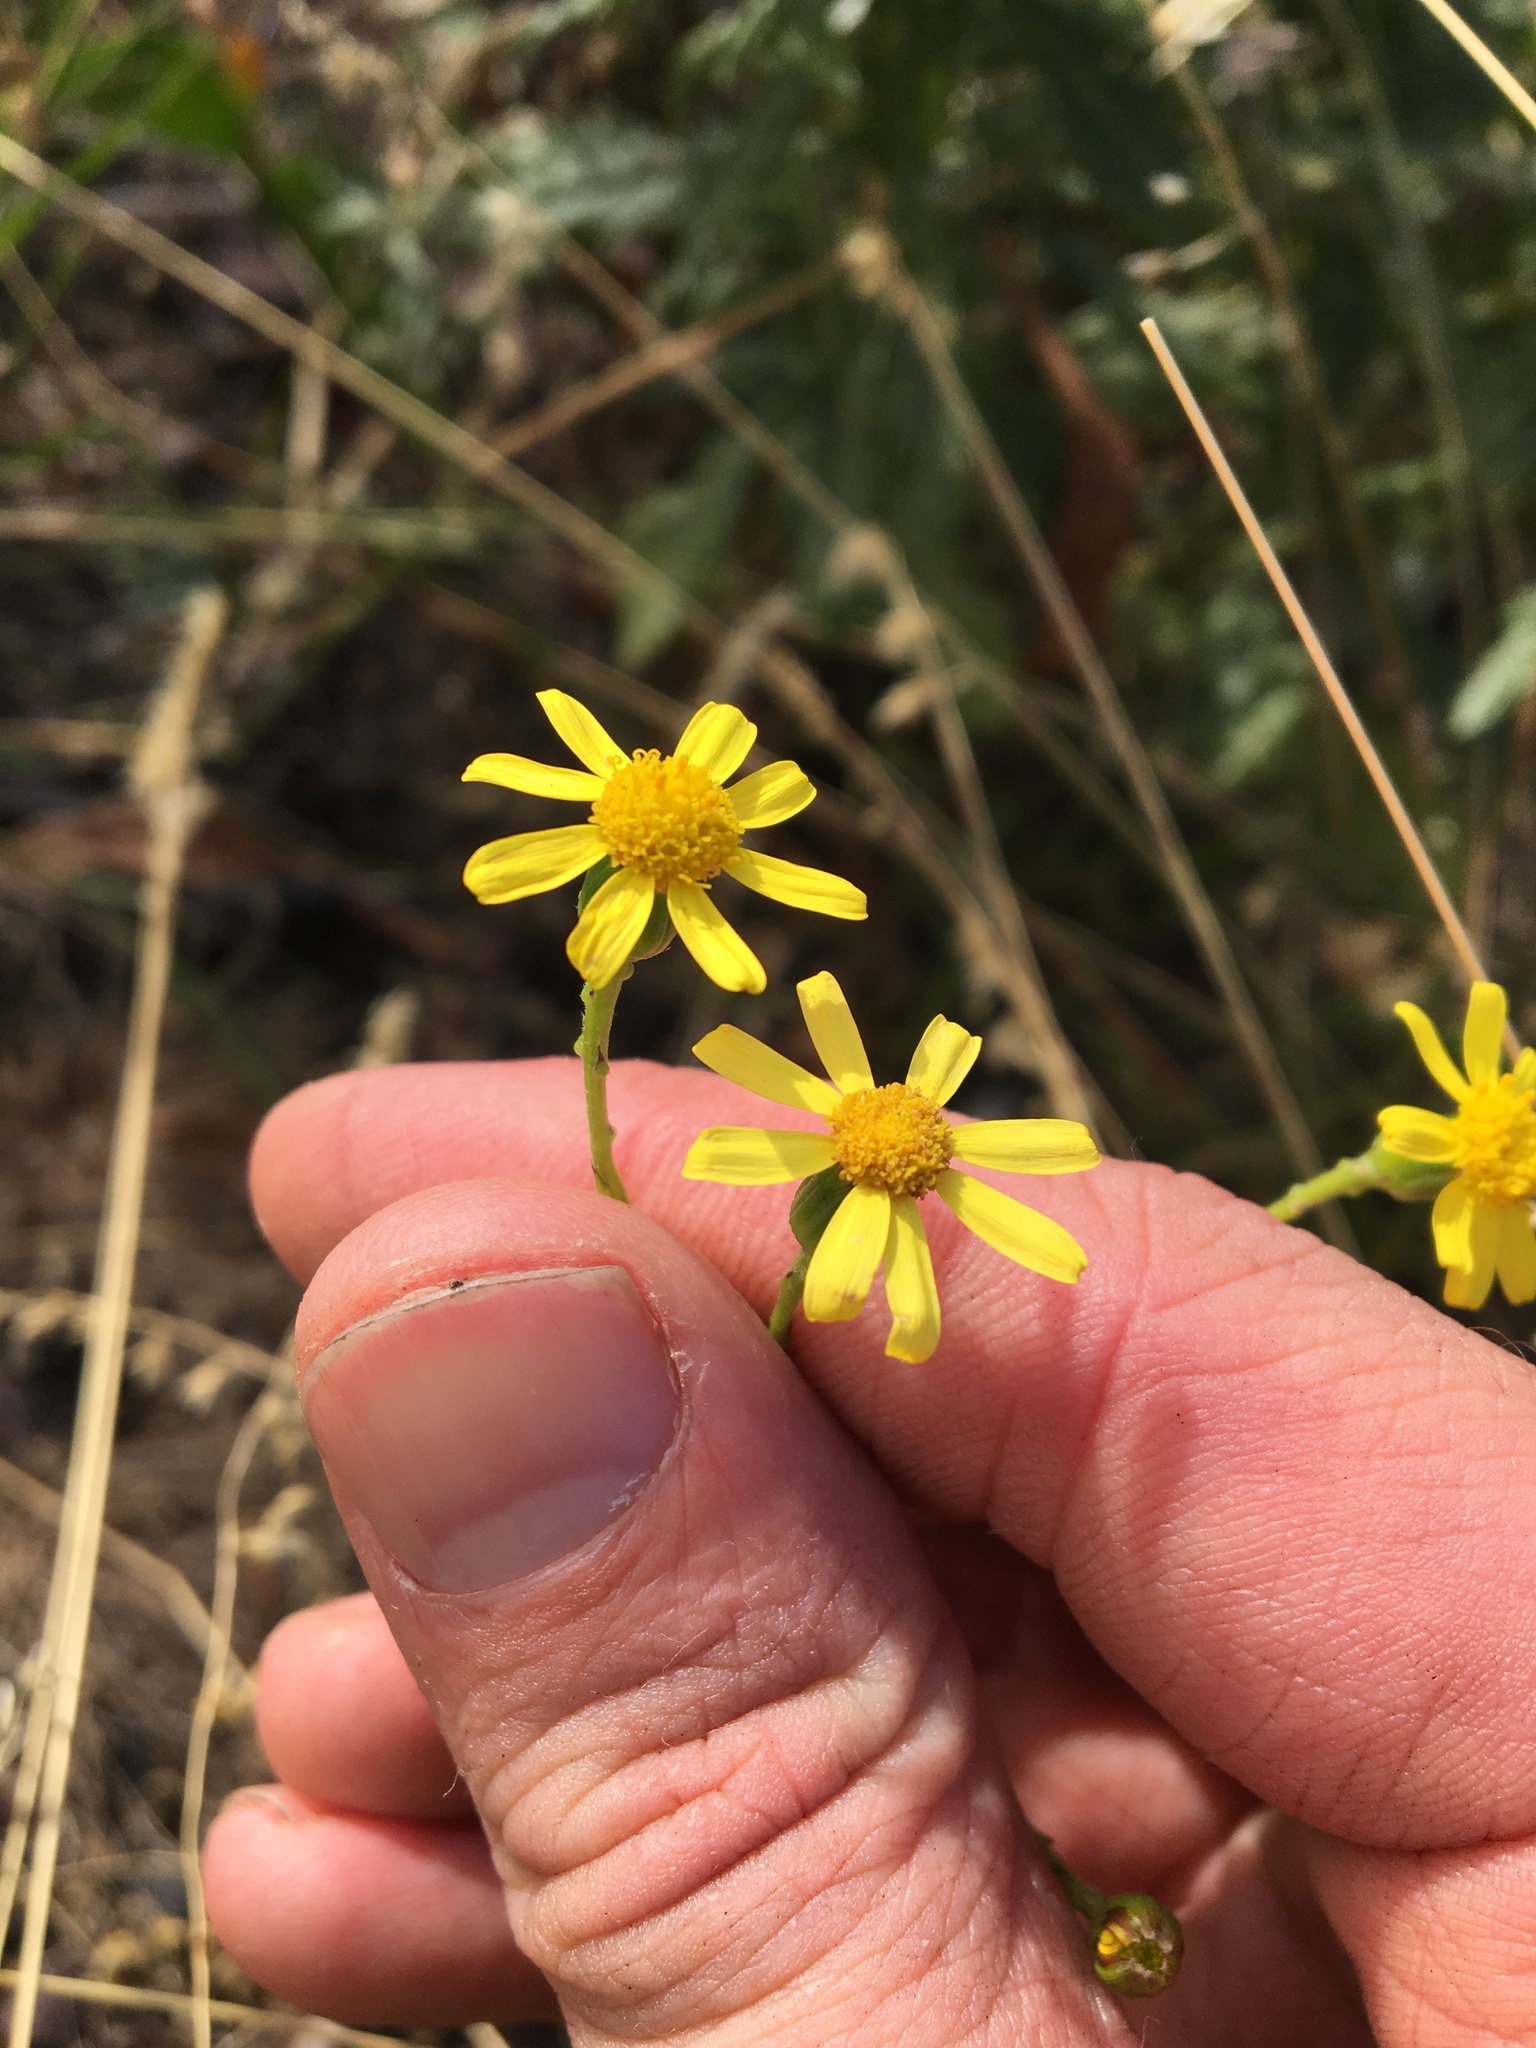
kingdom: Plantae
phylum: Tracheophyta
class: Magnoliopsida
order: Asterales
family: Asteraceae
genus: Senecio
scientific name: Senecio burchellii
